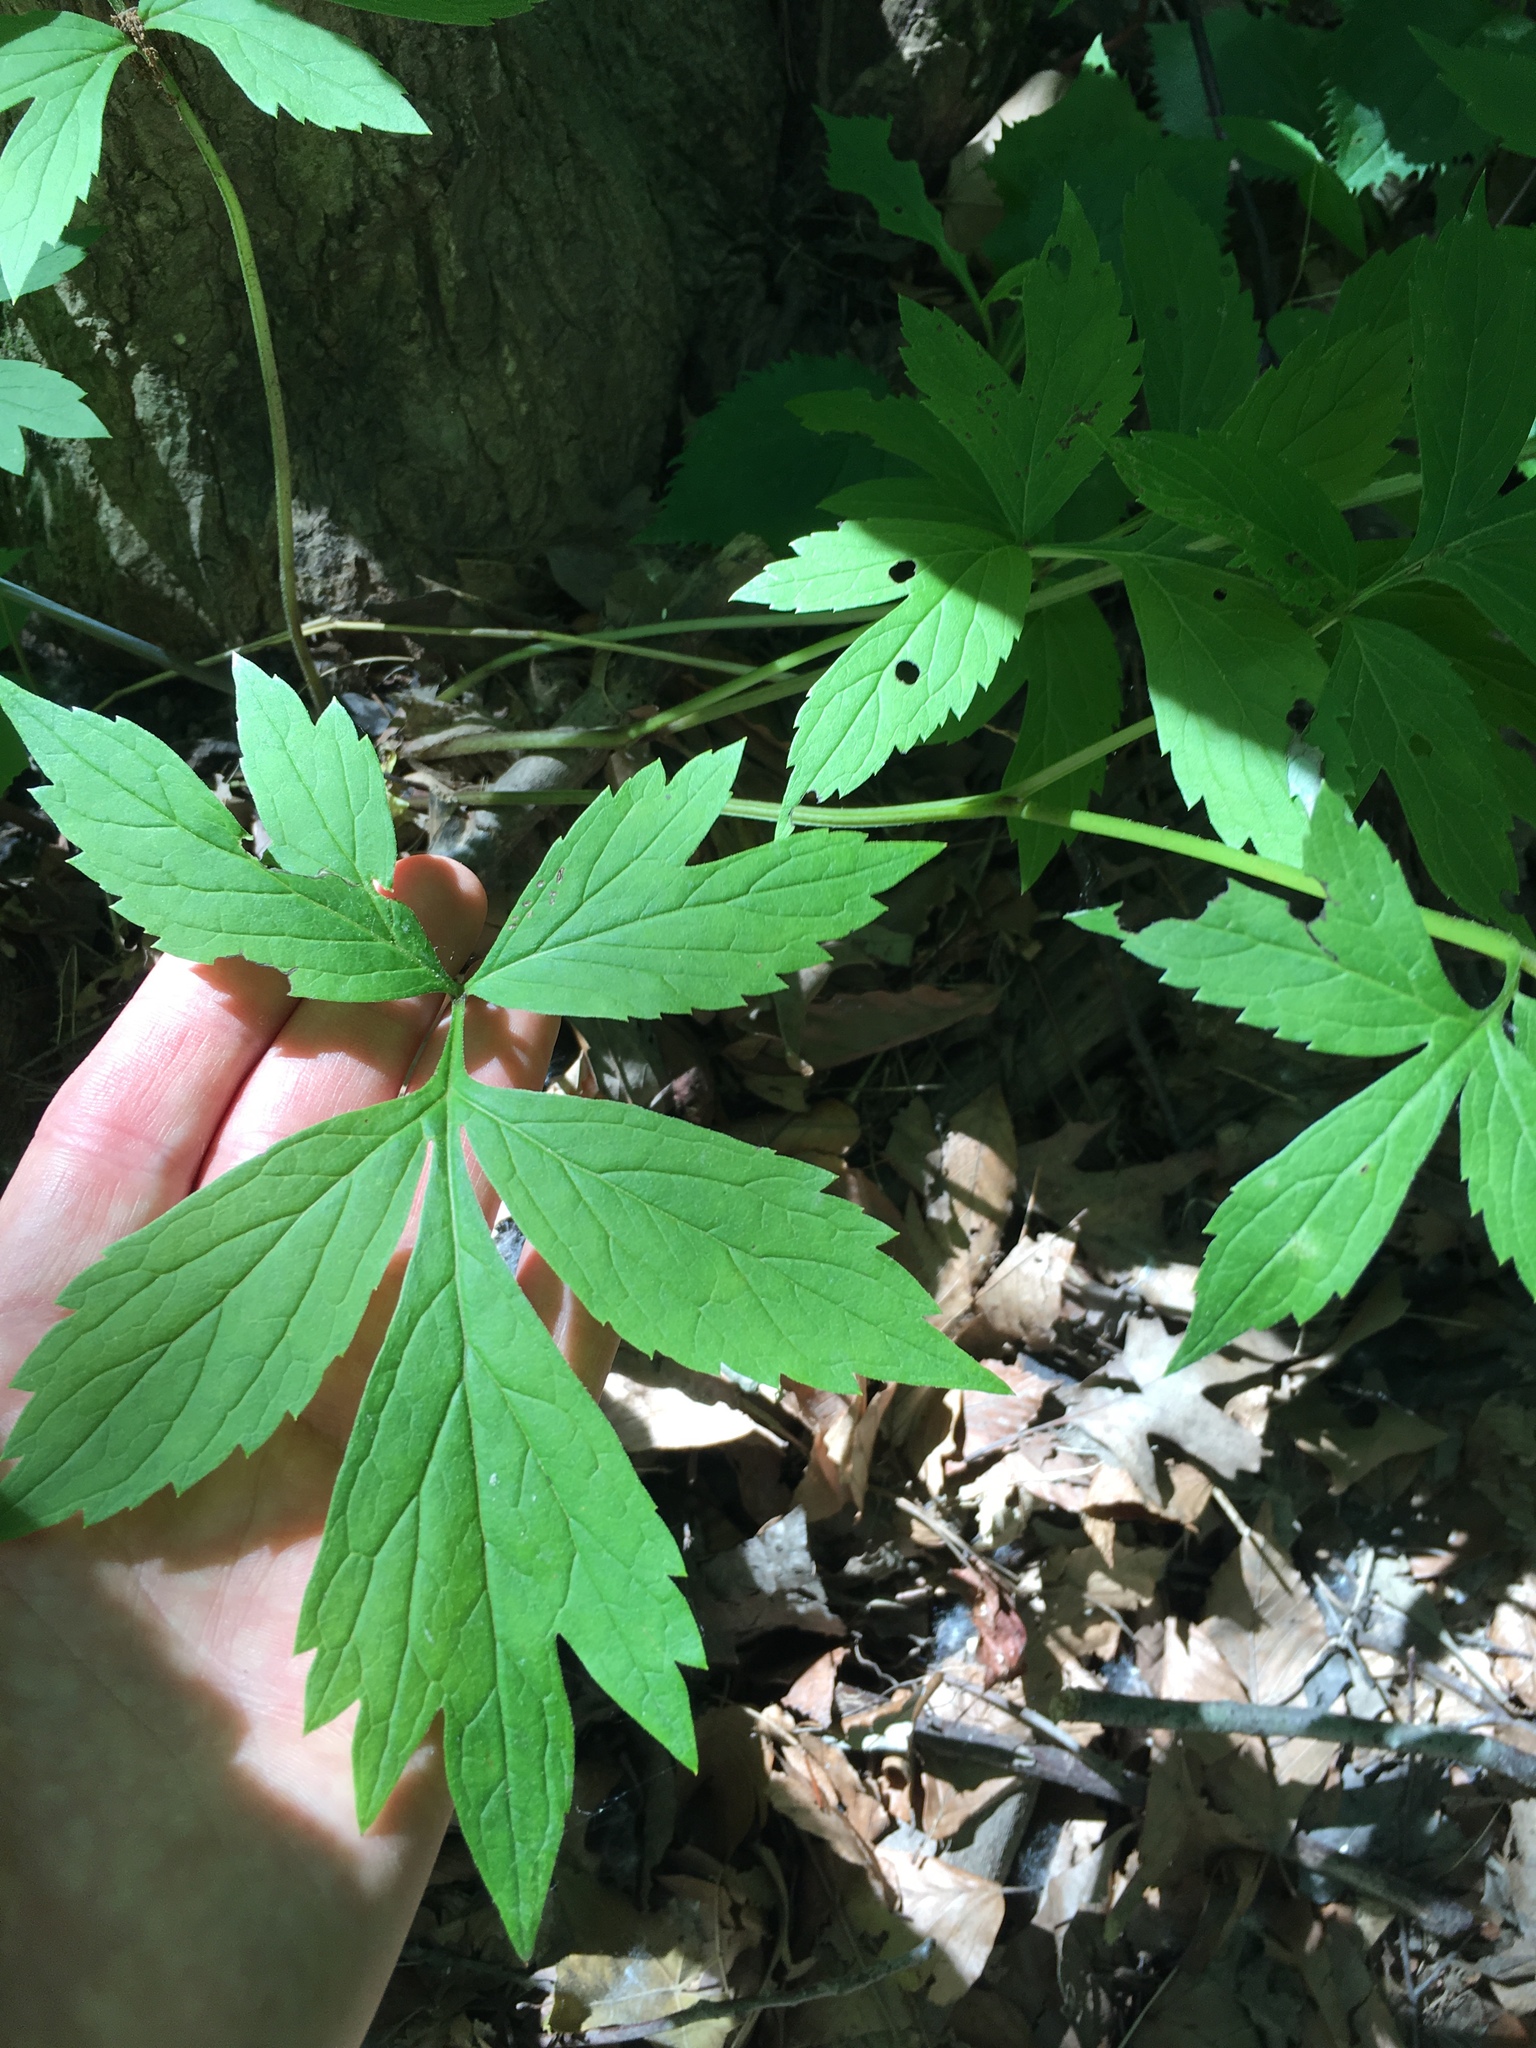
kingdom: Plantae
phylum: Tracheophyta
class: Magnoliopsida
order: Boraginales
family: Hydrophyllaceae
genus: Hydrophyllum
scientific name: Hydrophyllum virginianum
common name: Virginia waterleaf
